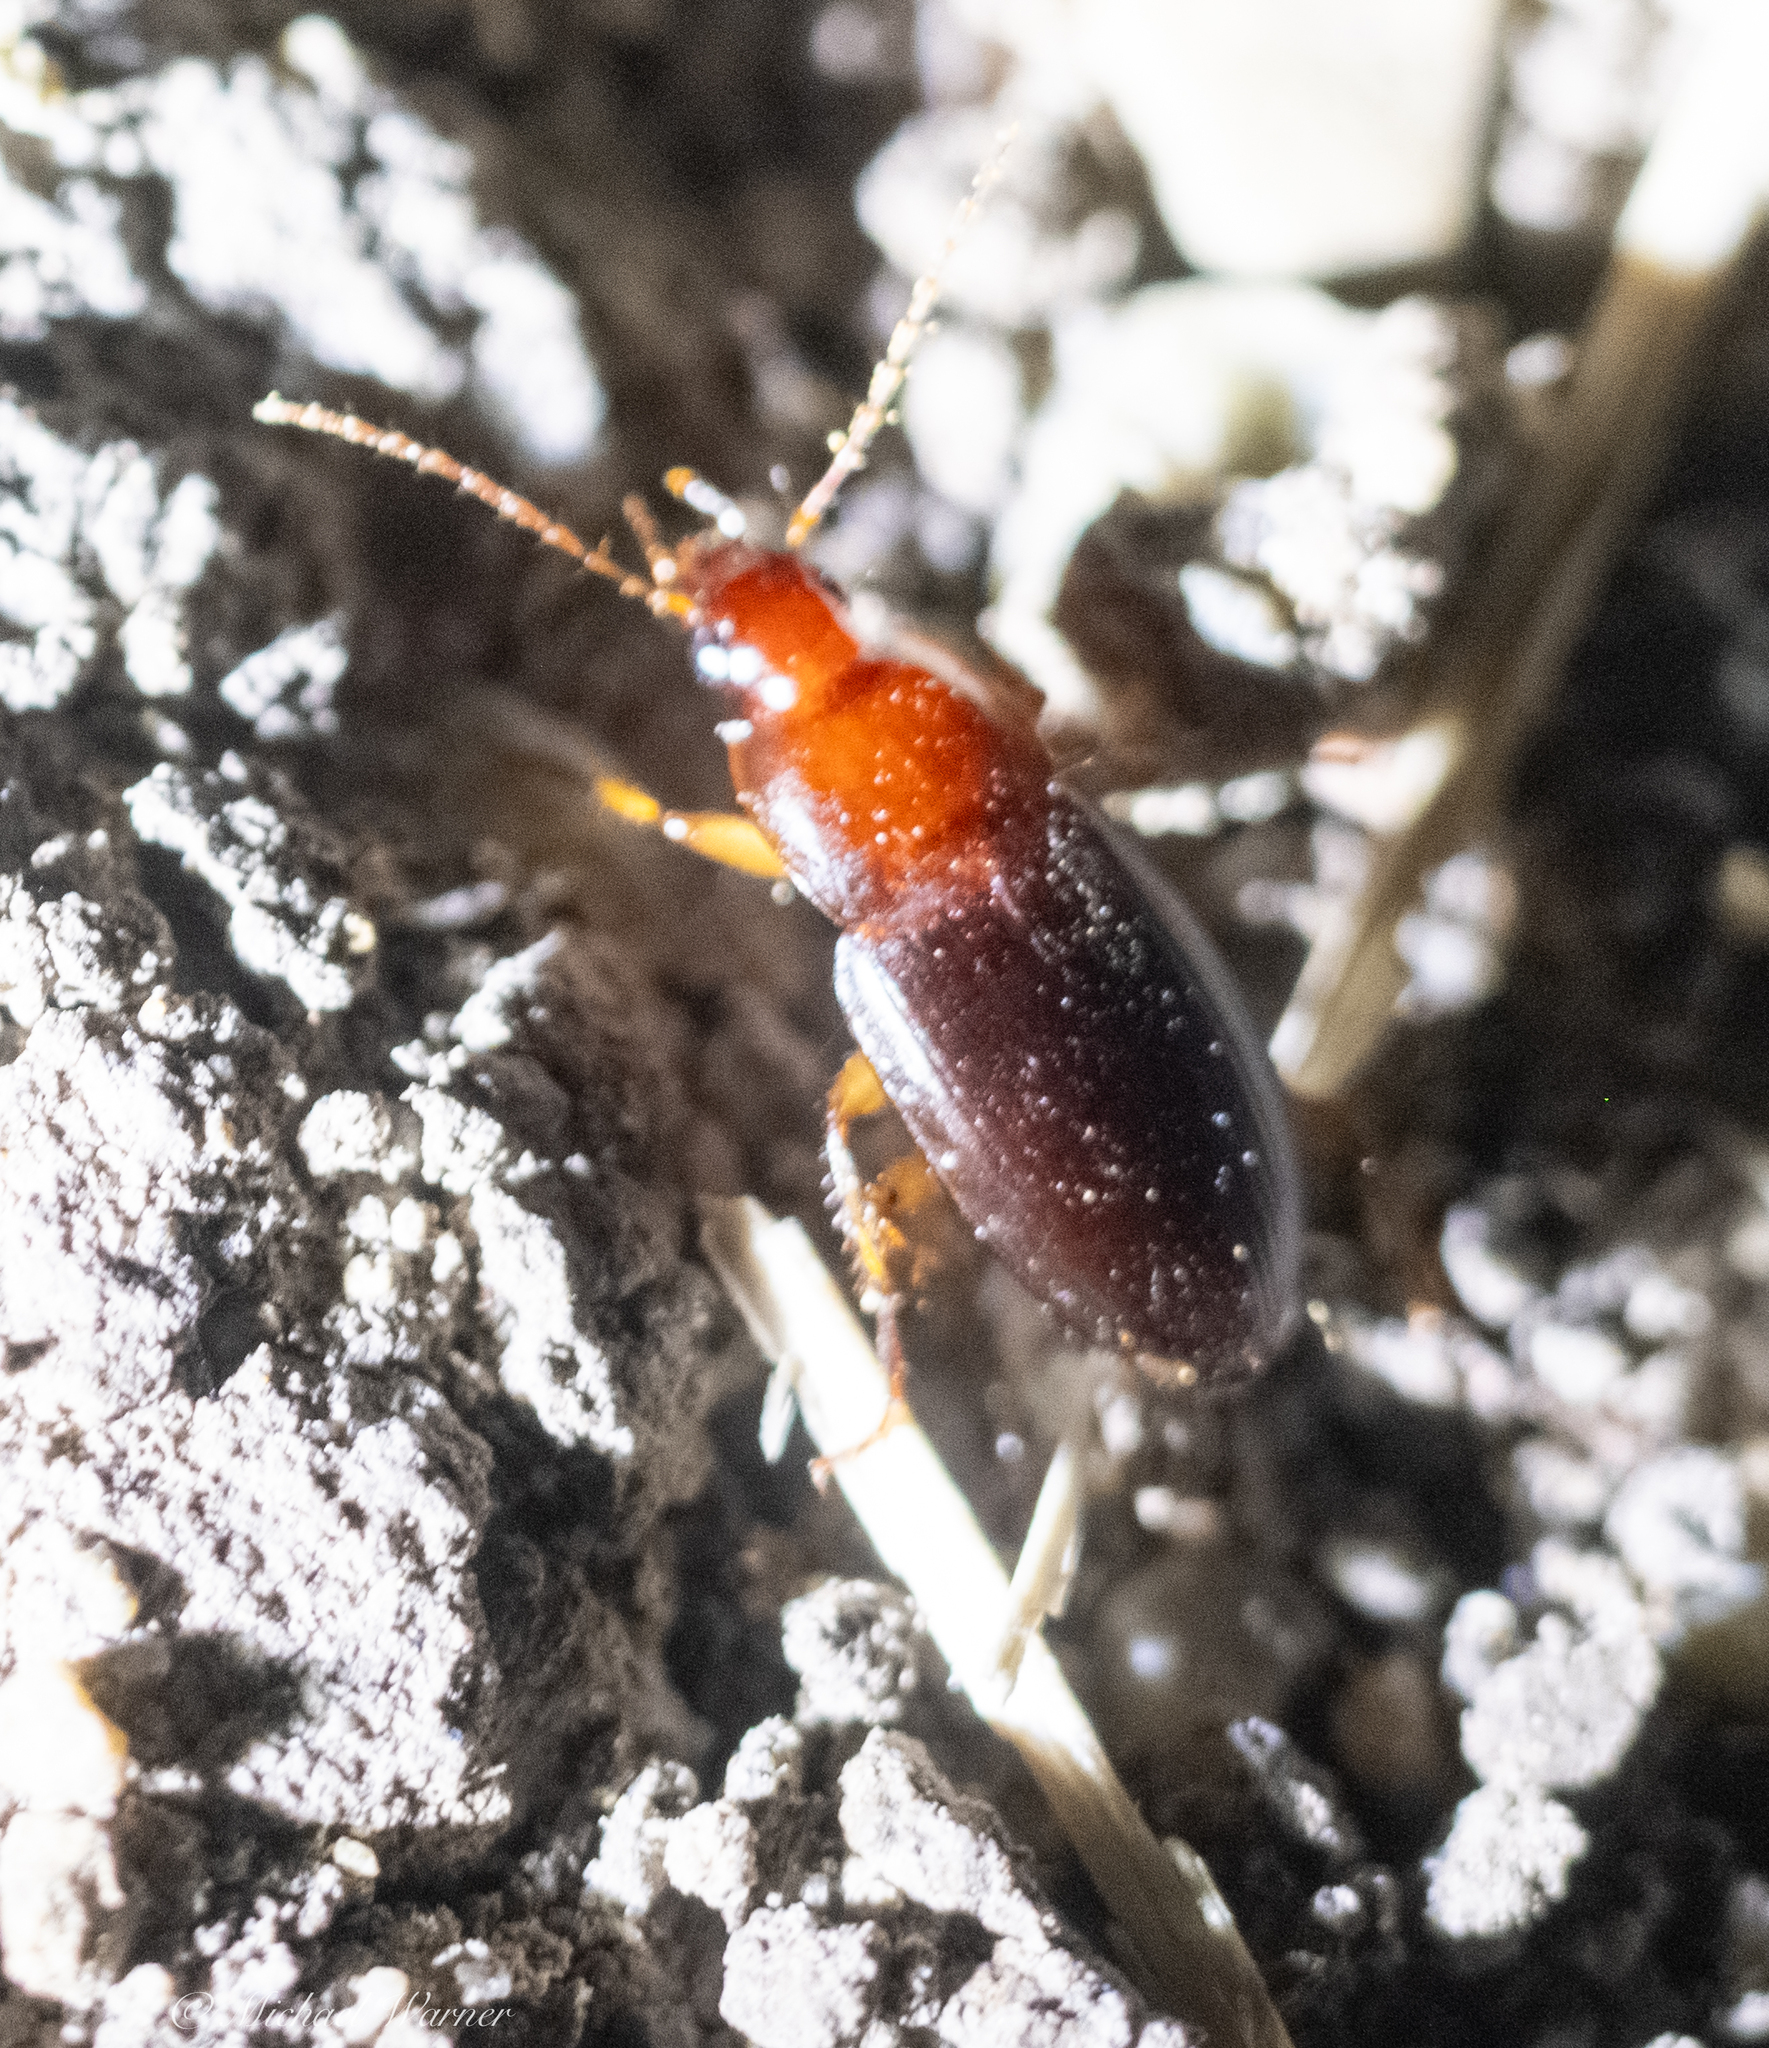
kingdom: Animalia
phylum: Arthropoda
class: Insecta
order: Coleoptera
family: Carabidae
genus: Calathus
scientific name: Calathus ruficollis
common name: Red-collared harp ground beetle
